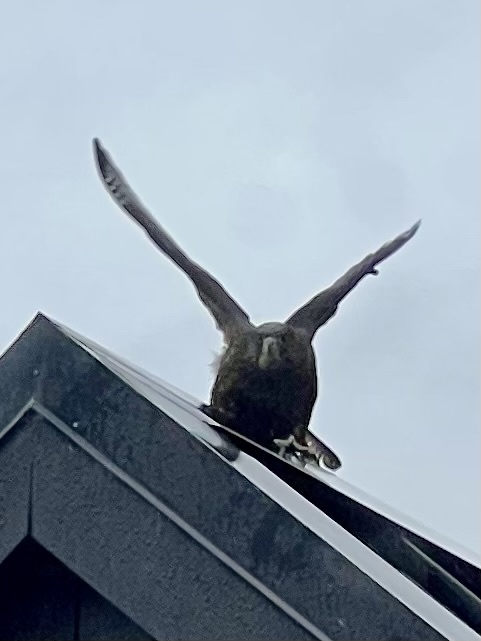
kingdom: Animalia
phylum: Chordata
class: Aves
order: Falconiformes
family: Falconidae
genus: Falco
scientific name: Falco novaeseelandiae
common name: New zealand falcon
